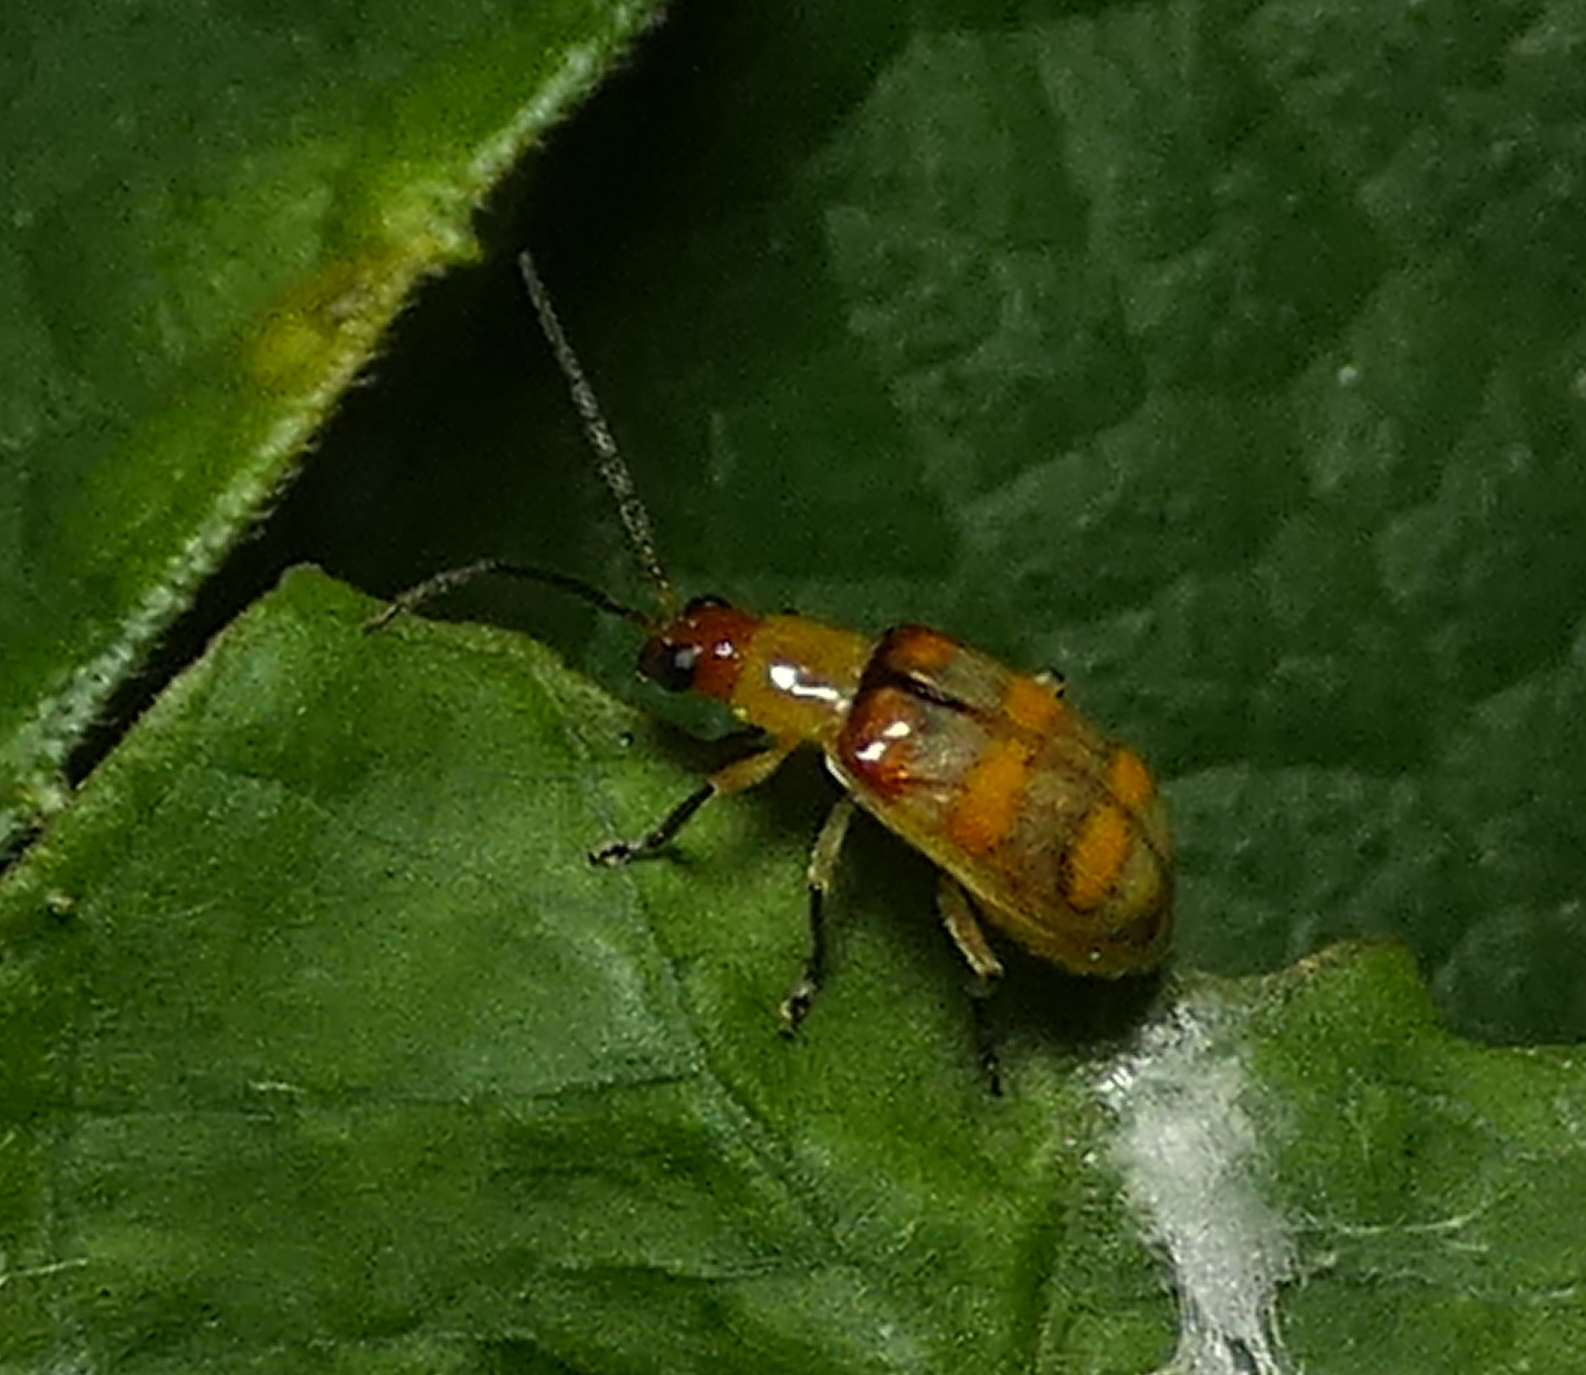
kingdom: Animalia
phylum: Arthropoda
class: Insecta
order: Coleoptera
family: Chrysomelidae
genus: Diabrotica
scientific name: Diabrotica speciosa
